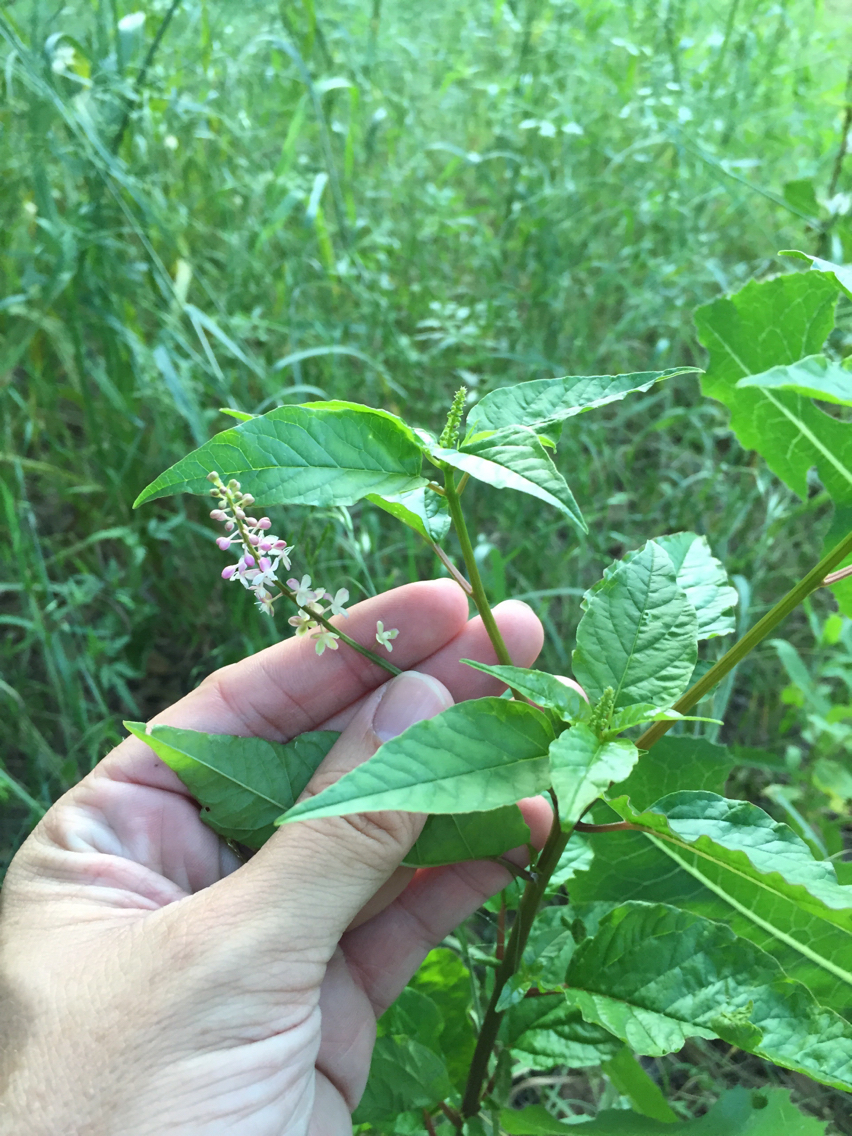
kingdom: Plantae
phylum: Tracheophyta
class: Magnoliopsida
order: Caryophyllales
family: Phytolaccaceae
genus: Rivina
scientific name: Rivina humilis
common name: Rougeplant
